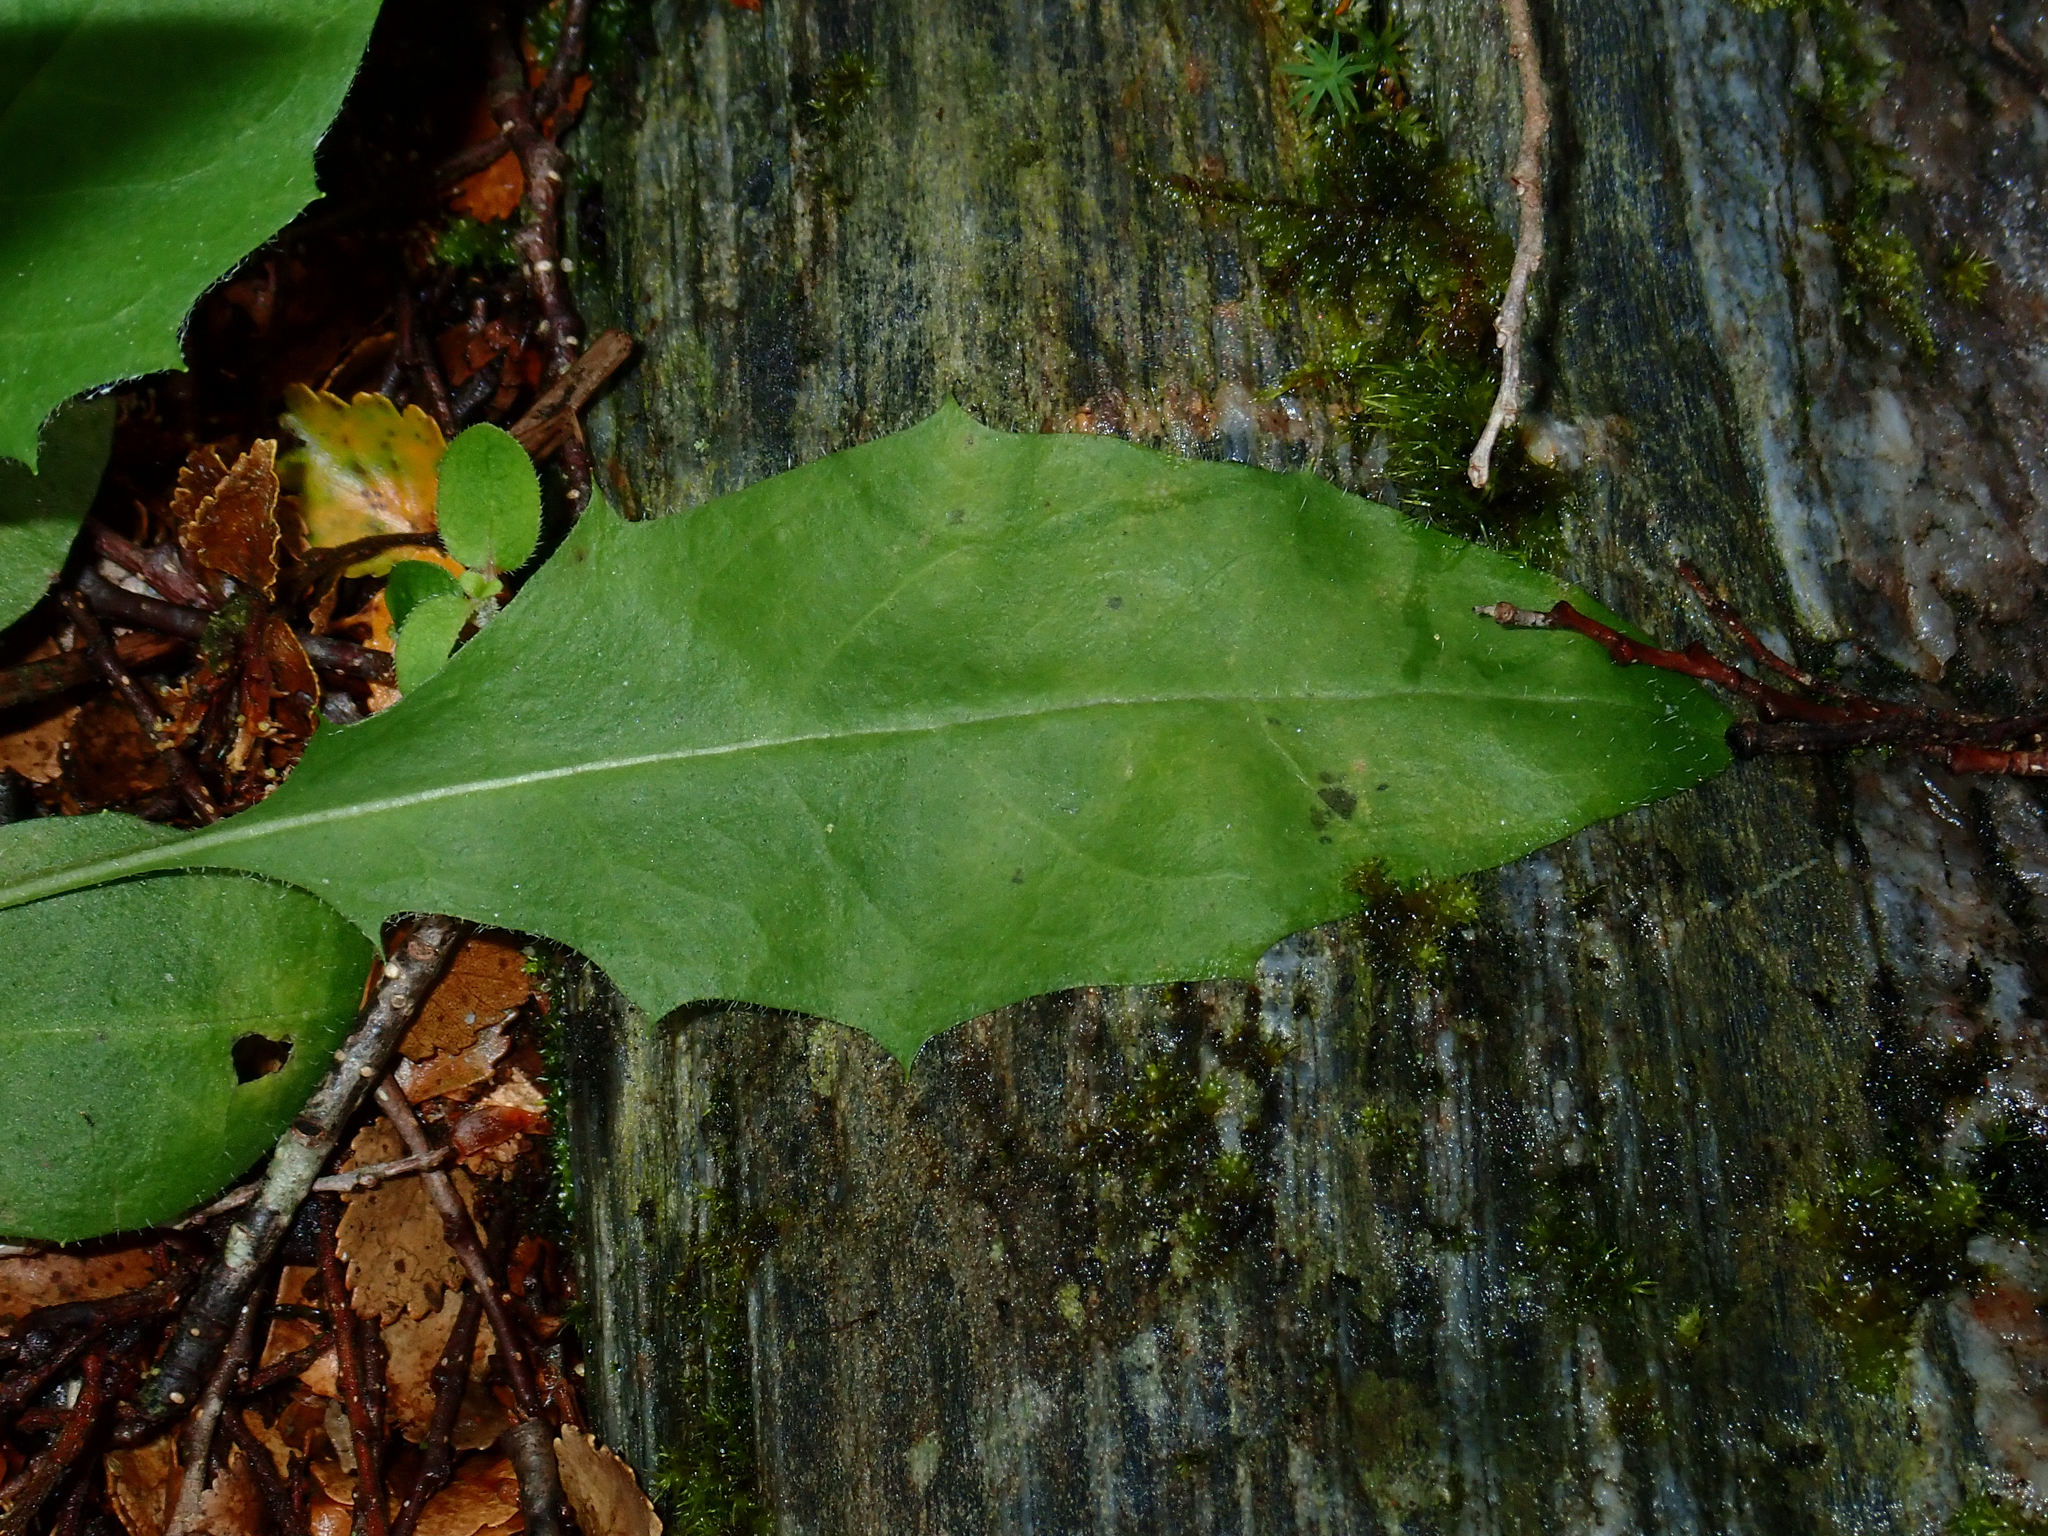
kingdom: Plantae
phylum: Tracheophyta
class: Magnoliopsida
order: Asterales
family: Asteraceae
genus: Hieracium
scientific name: Hieracium lepidulum
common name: Irregular-toothed hawkweed
